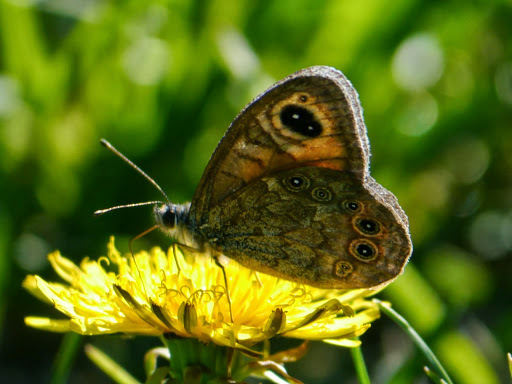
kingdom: Animalia
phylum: Arthropoda
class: Insecta
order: Lepidoptera
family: Nymphalidae
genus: Pararge
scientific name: Pararge Lasiommata maera
